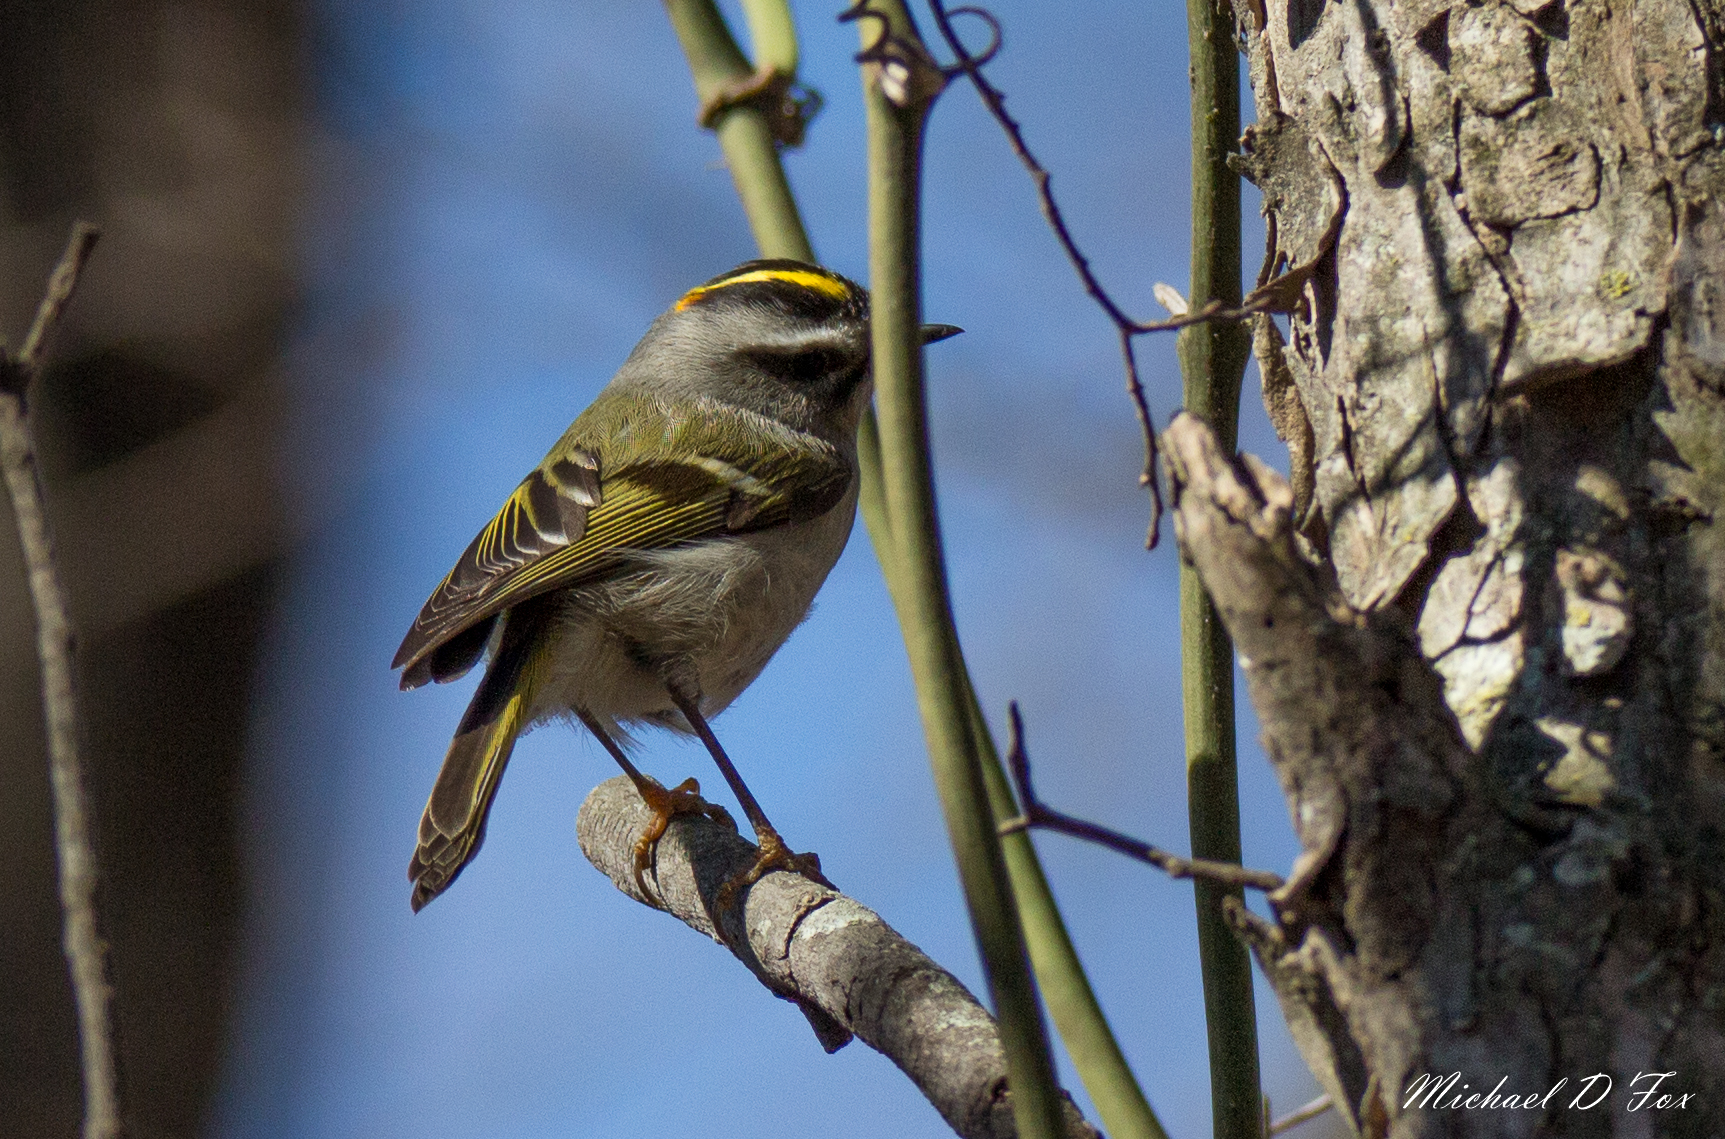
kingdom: Animalia
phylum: Chordata
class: Aves
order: Passeriformes
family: Regulidae
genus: Regulus
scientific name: Regulus satrapa
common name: Golden-crowned kinglet
